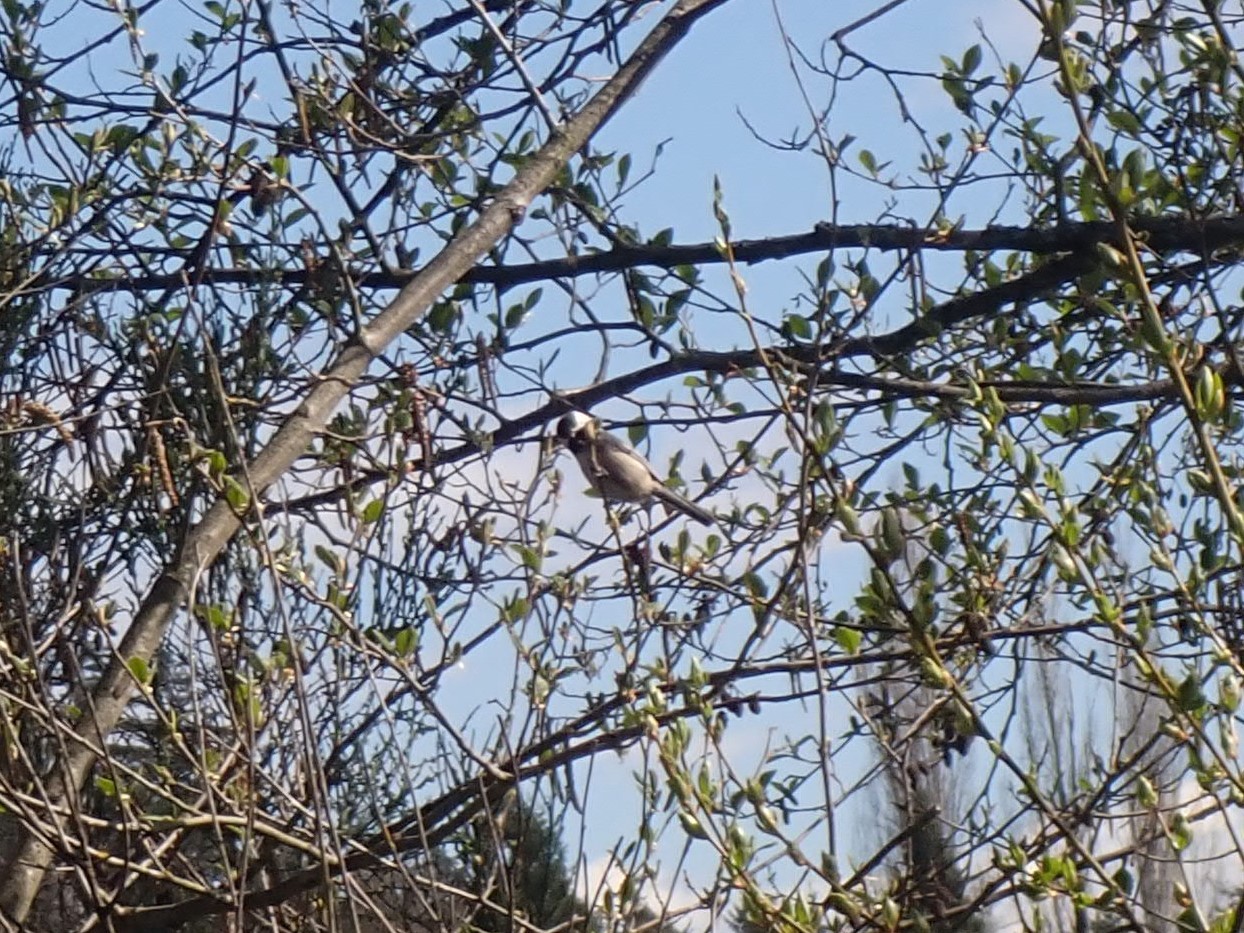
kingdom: Animalia
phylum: Chordata
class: Aves
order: Passeriformes
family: Paridae
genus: Poecile
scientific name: Poecile atricapillus
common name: Black-capped chickadee
